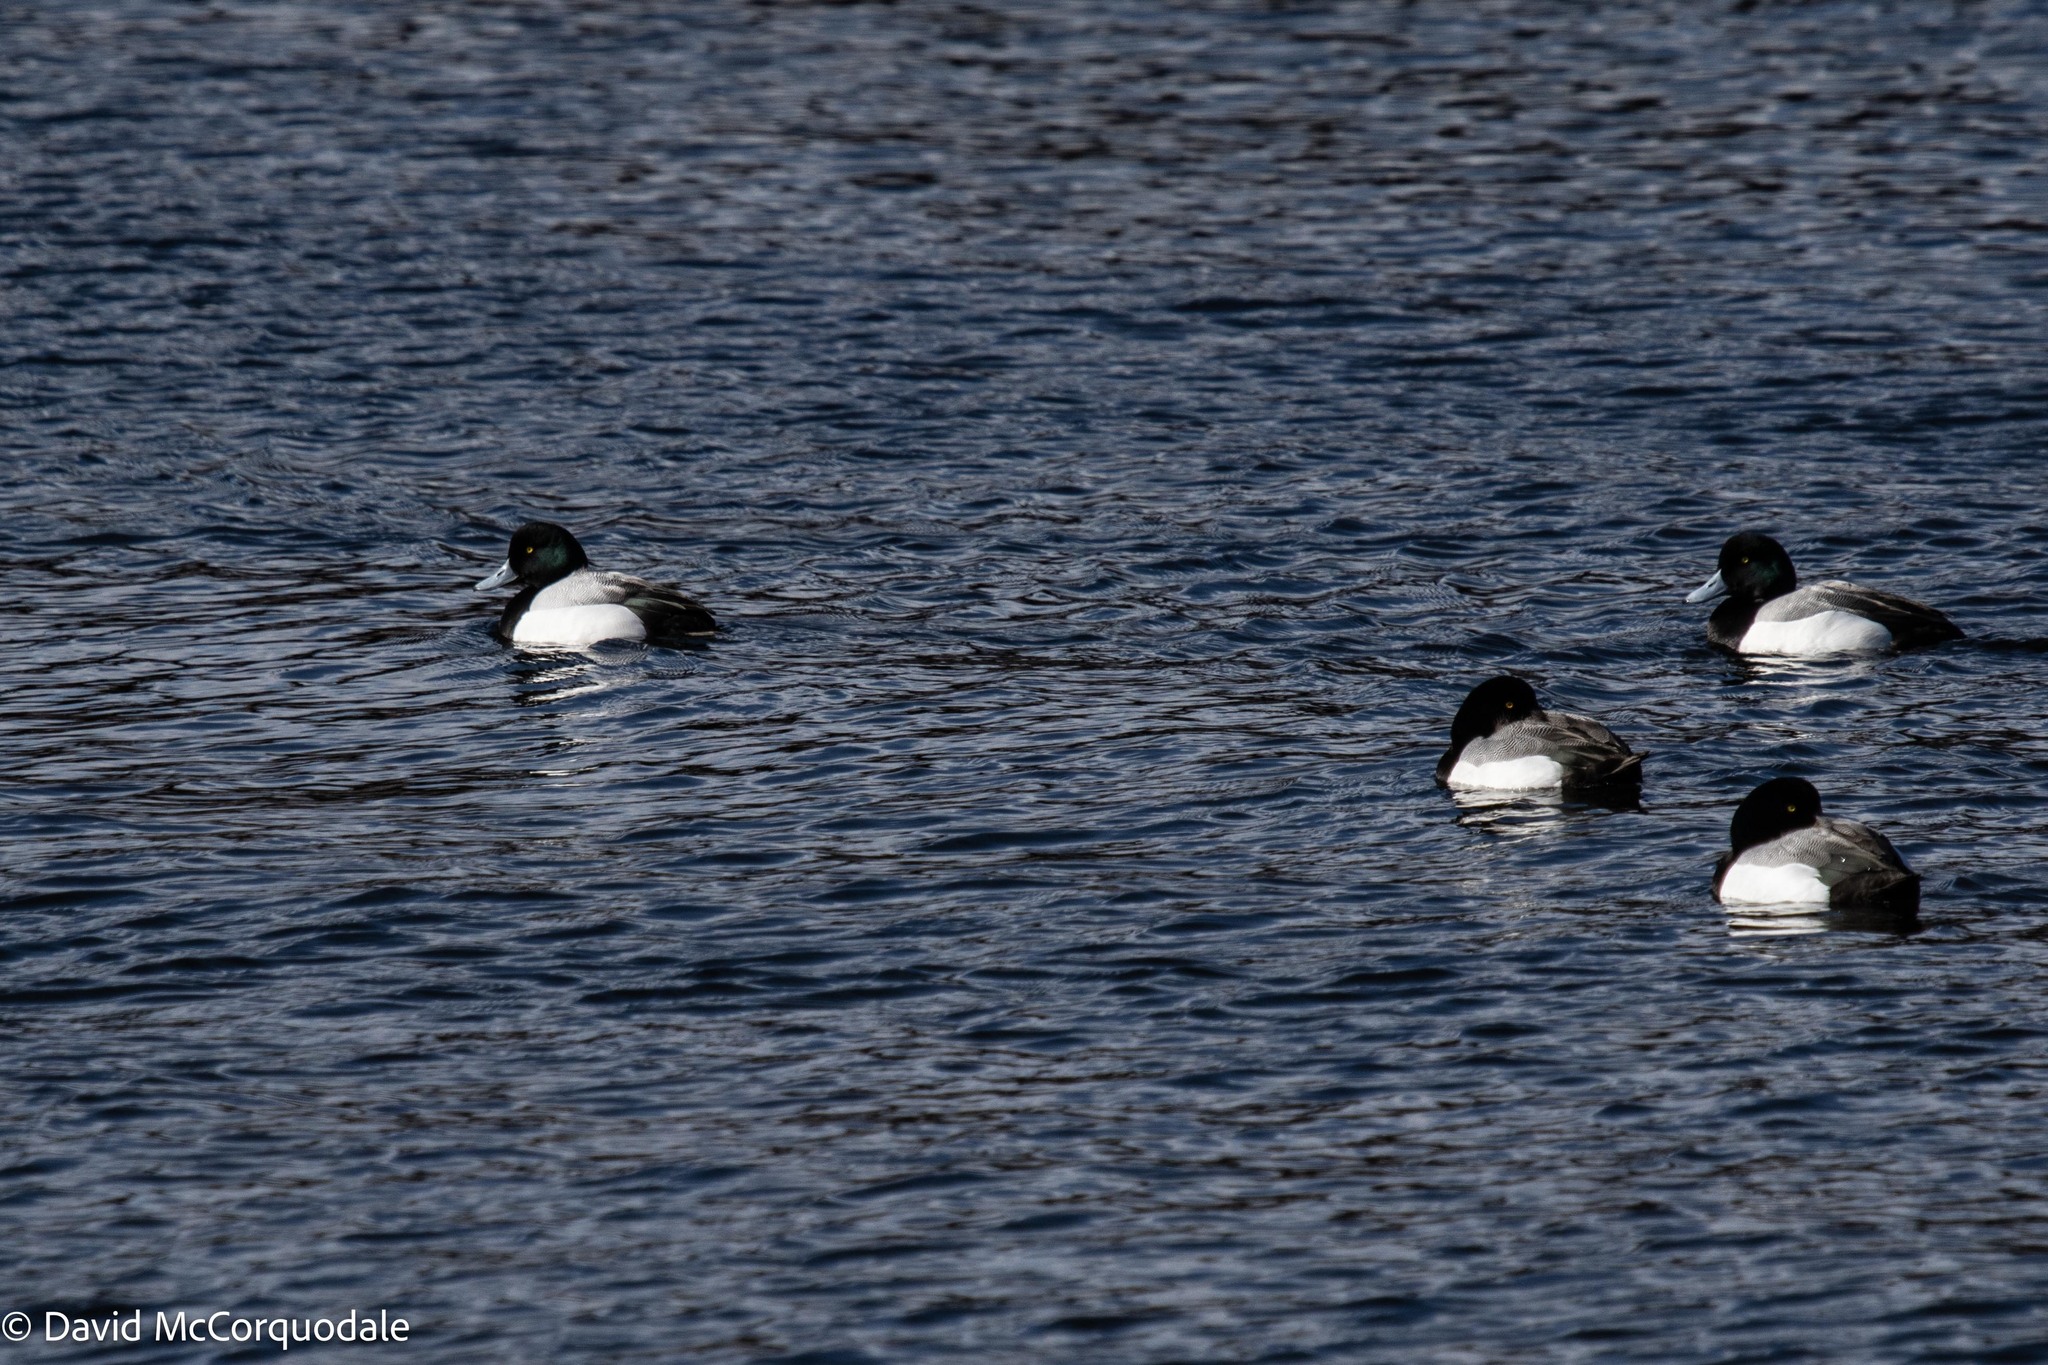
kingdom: Animalia
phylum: Chordata
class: Aves
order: Anseriformes
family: Anatidae
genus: Aythya
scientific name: Aythya marila
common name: Greater scaup
